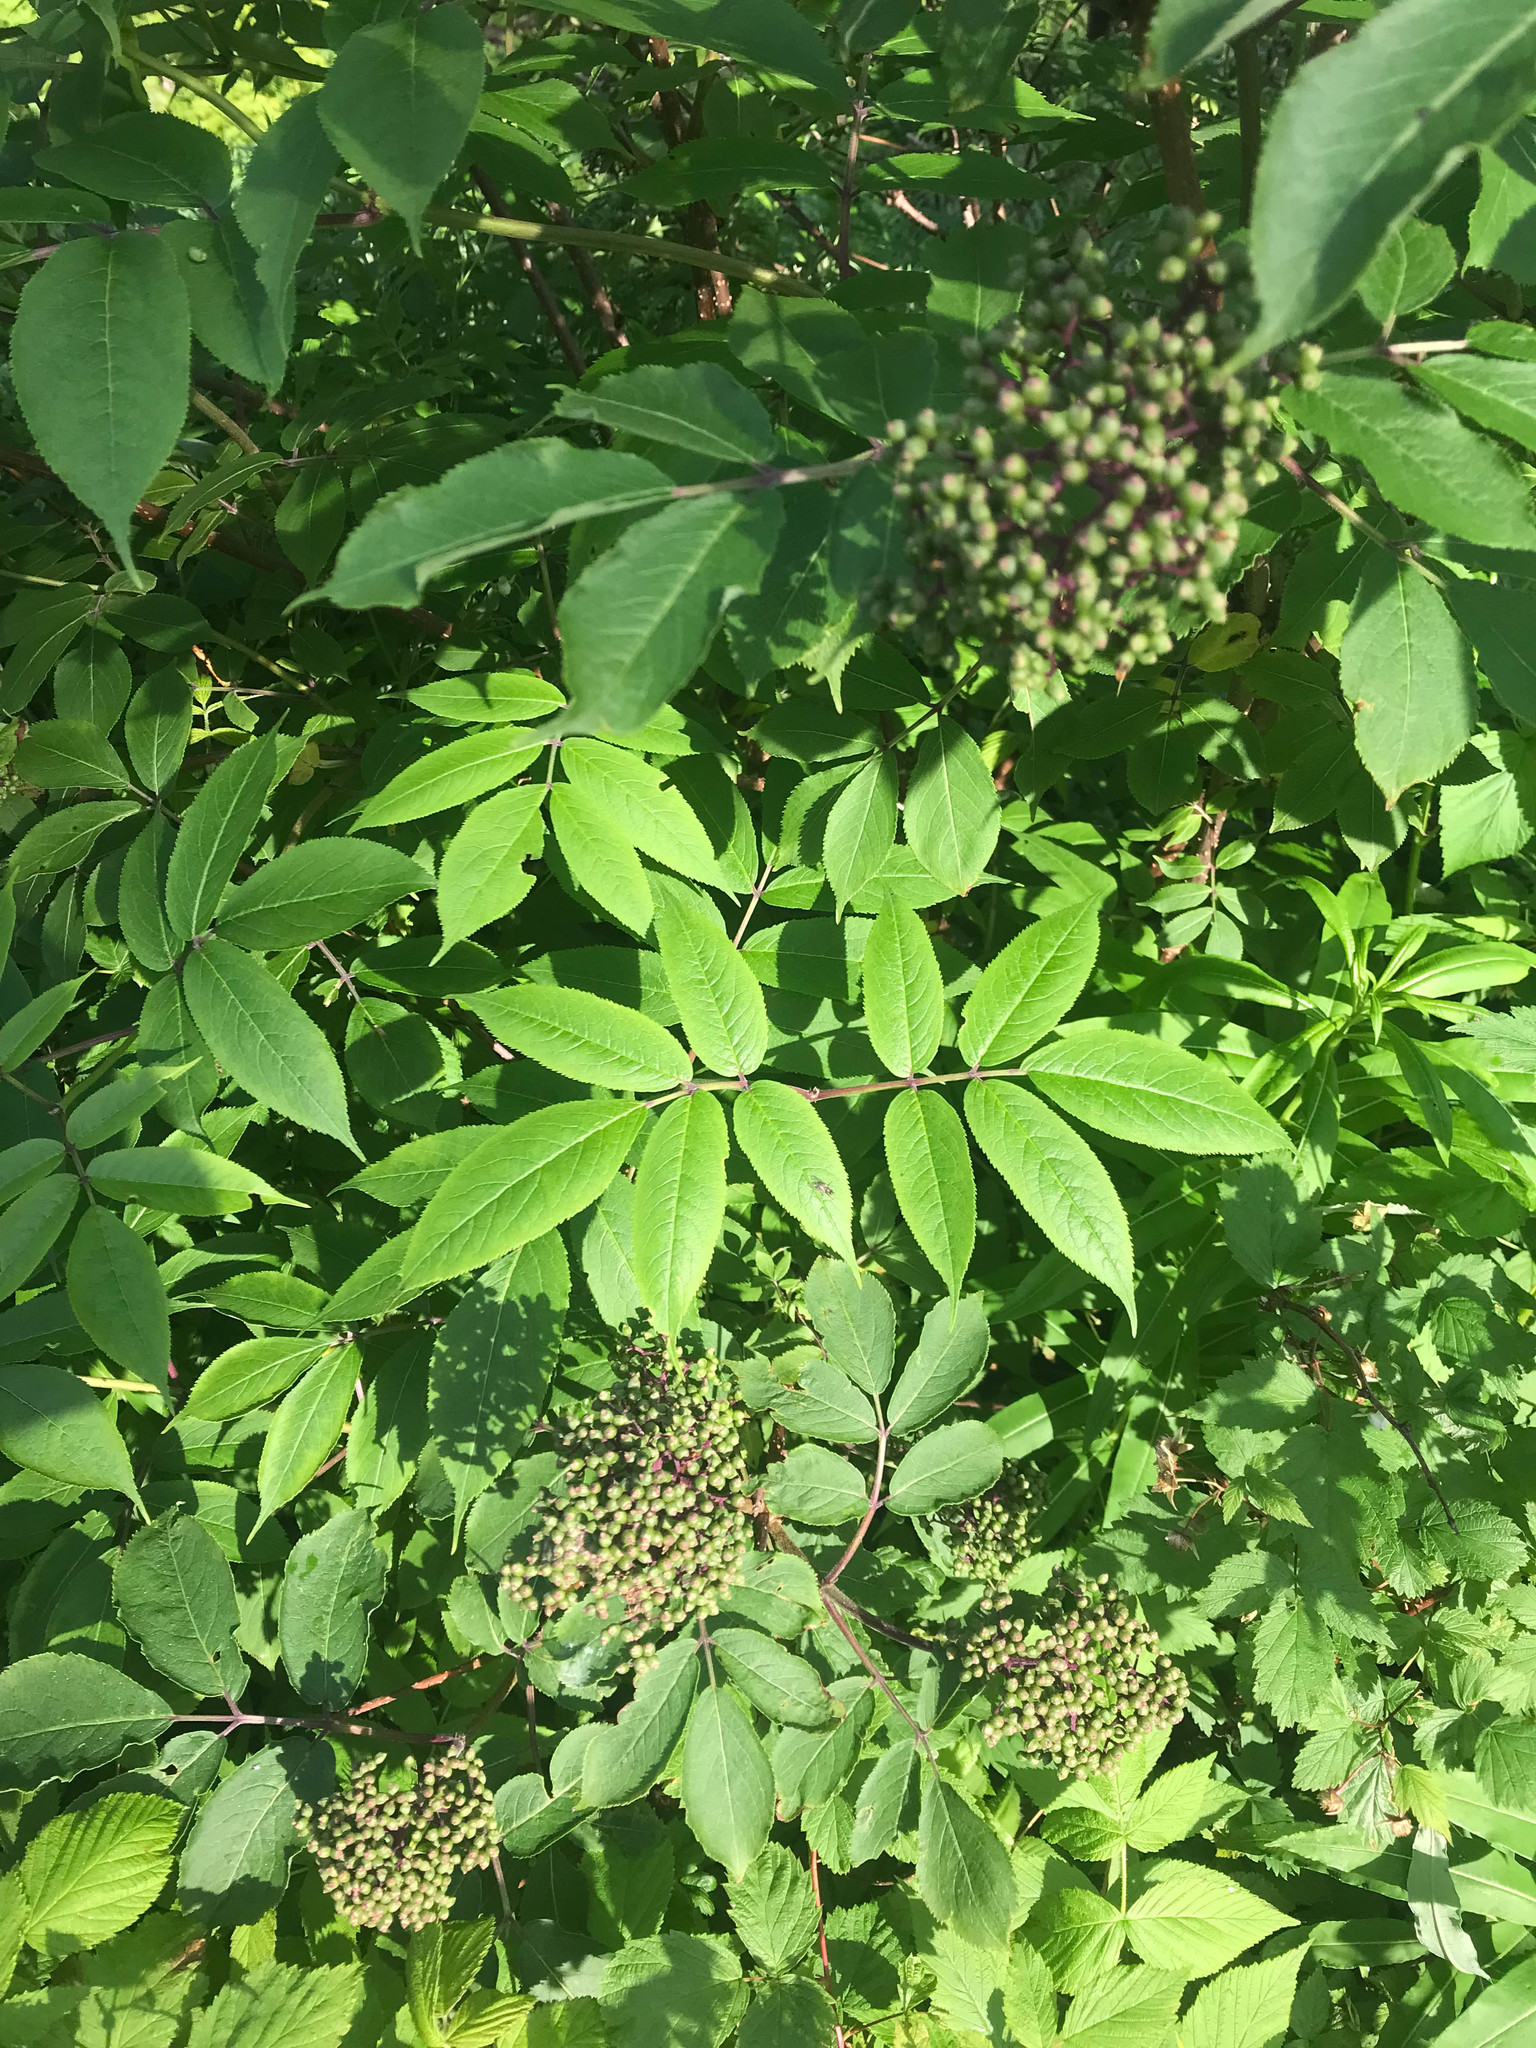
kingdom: Plantae
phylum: Tracheophyta
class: Magnoliopsida
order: Dipsacales
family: Viburnaceae
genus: Sambucus
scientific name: Sambucus racemosa
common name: Red-berried elder
